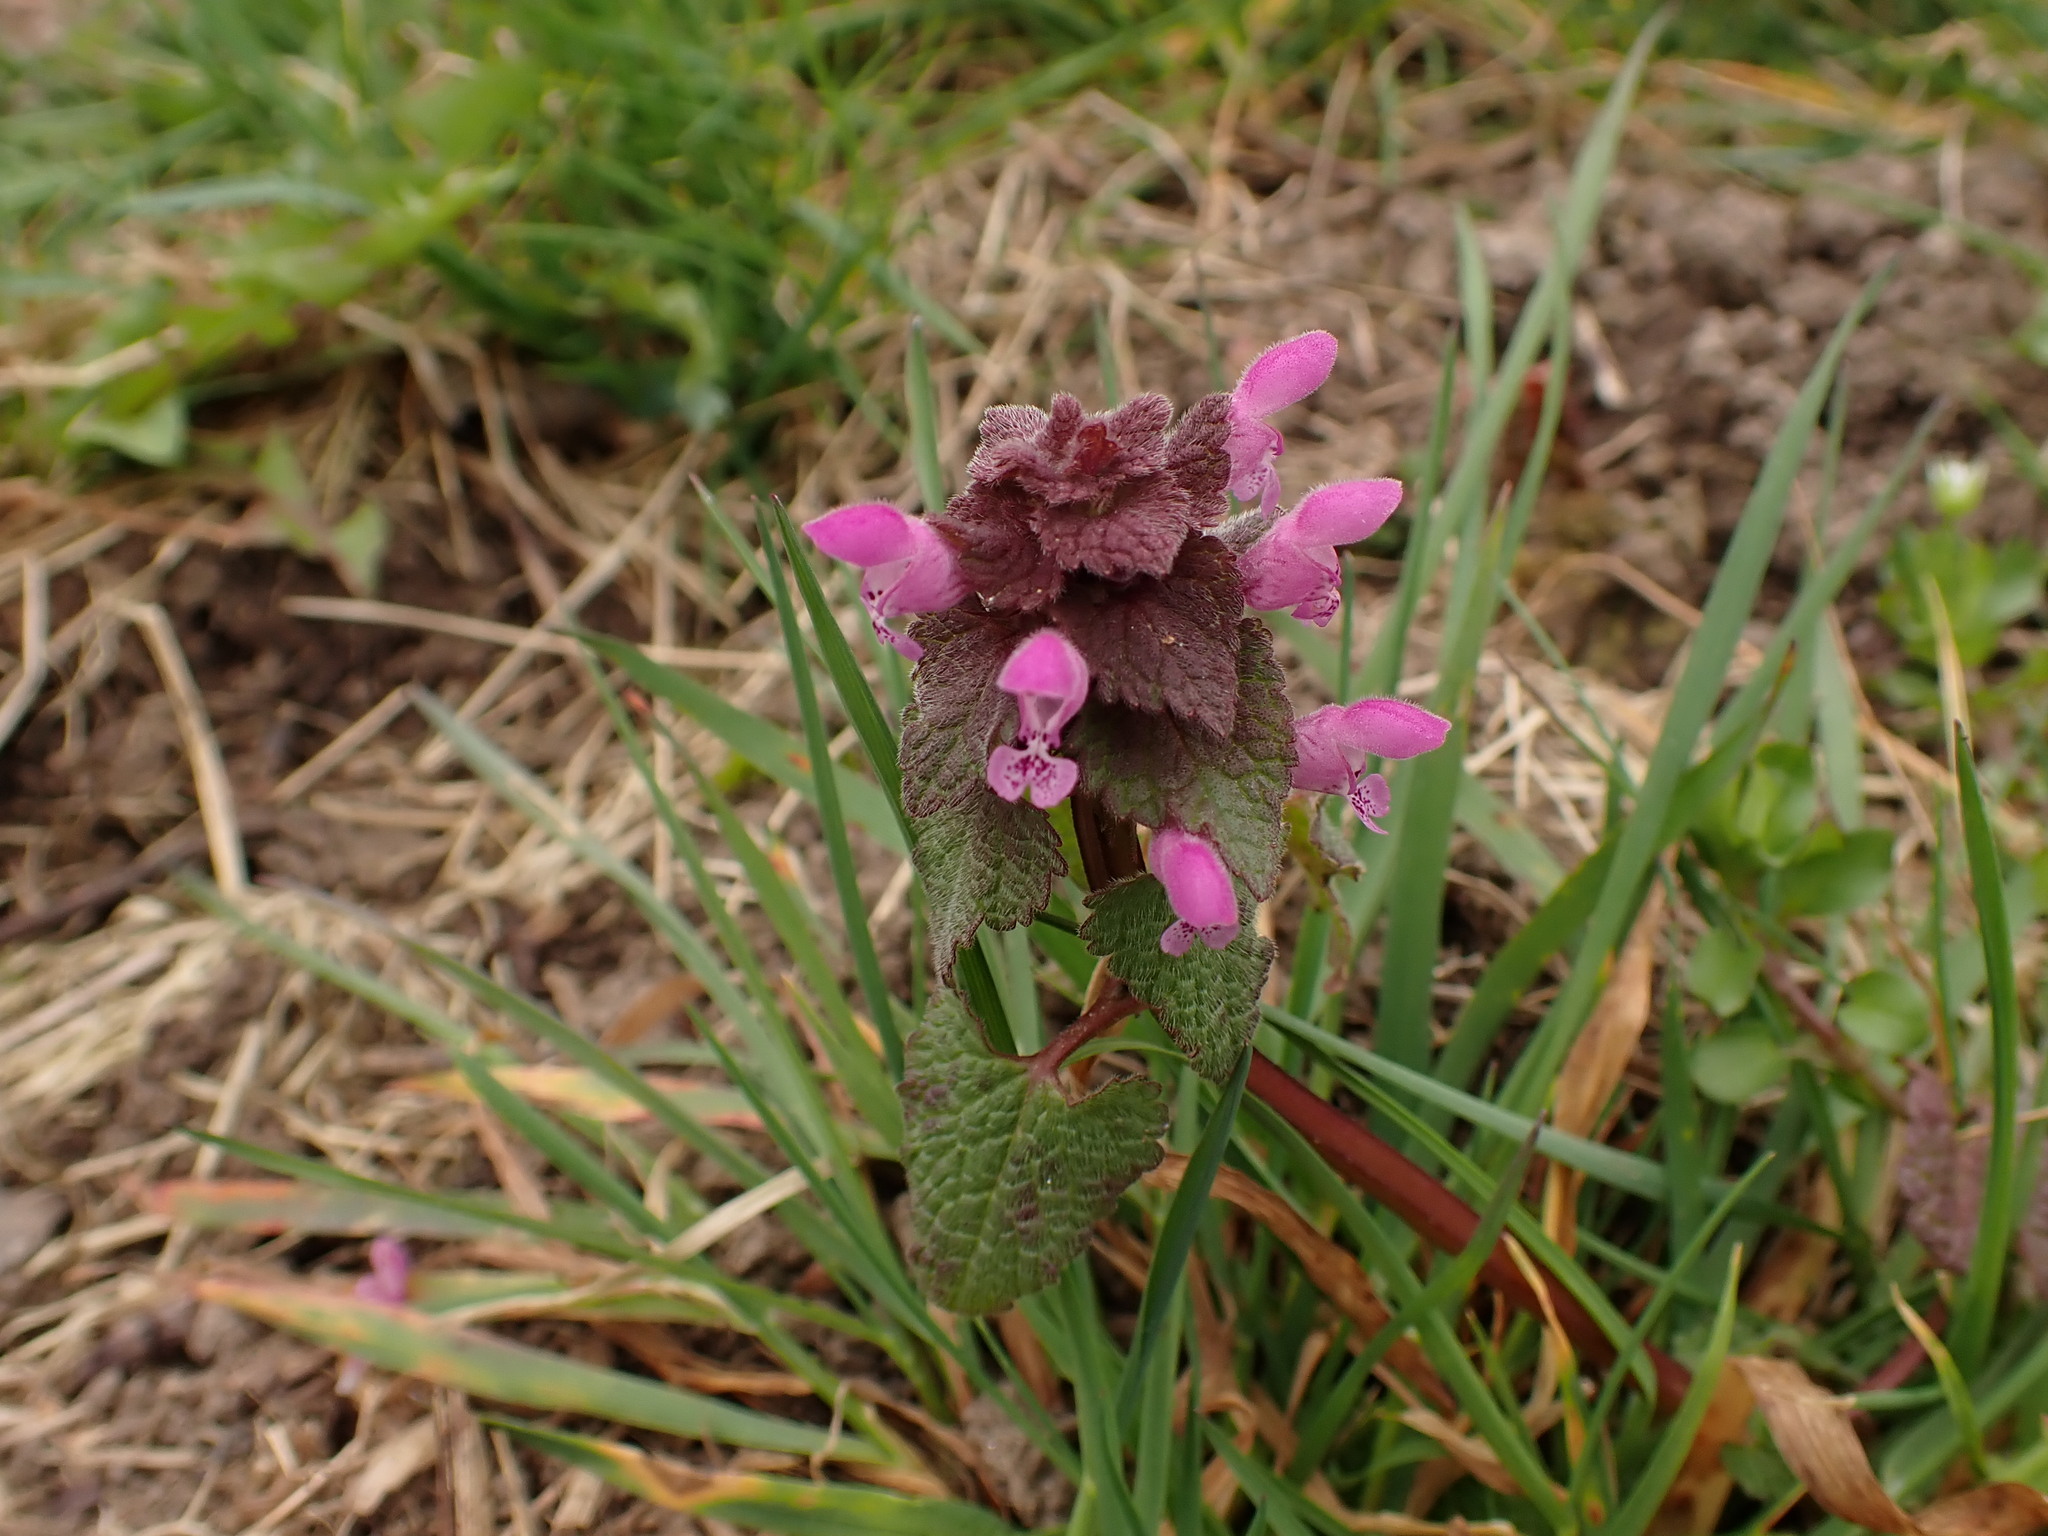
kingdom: Plantae
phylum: Tracheophyta
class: Magnoliopsida
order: Lamiales
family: Lamiaceae
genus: Lamium
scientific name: Lamium purpureum
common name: Red dead-nettle
